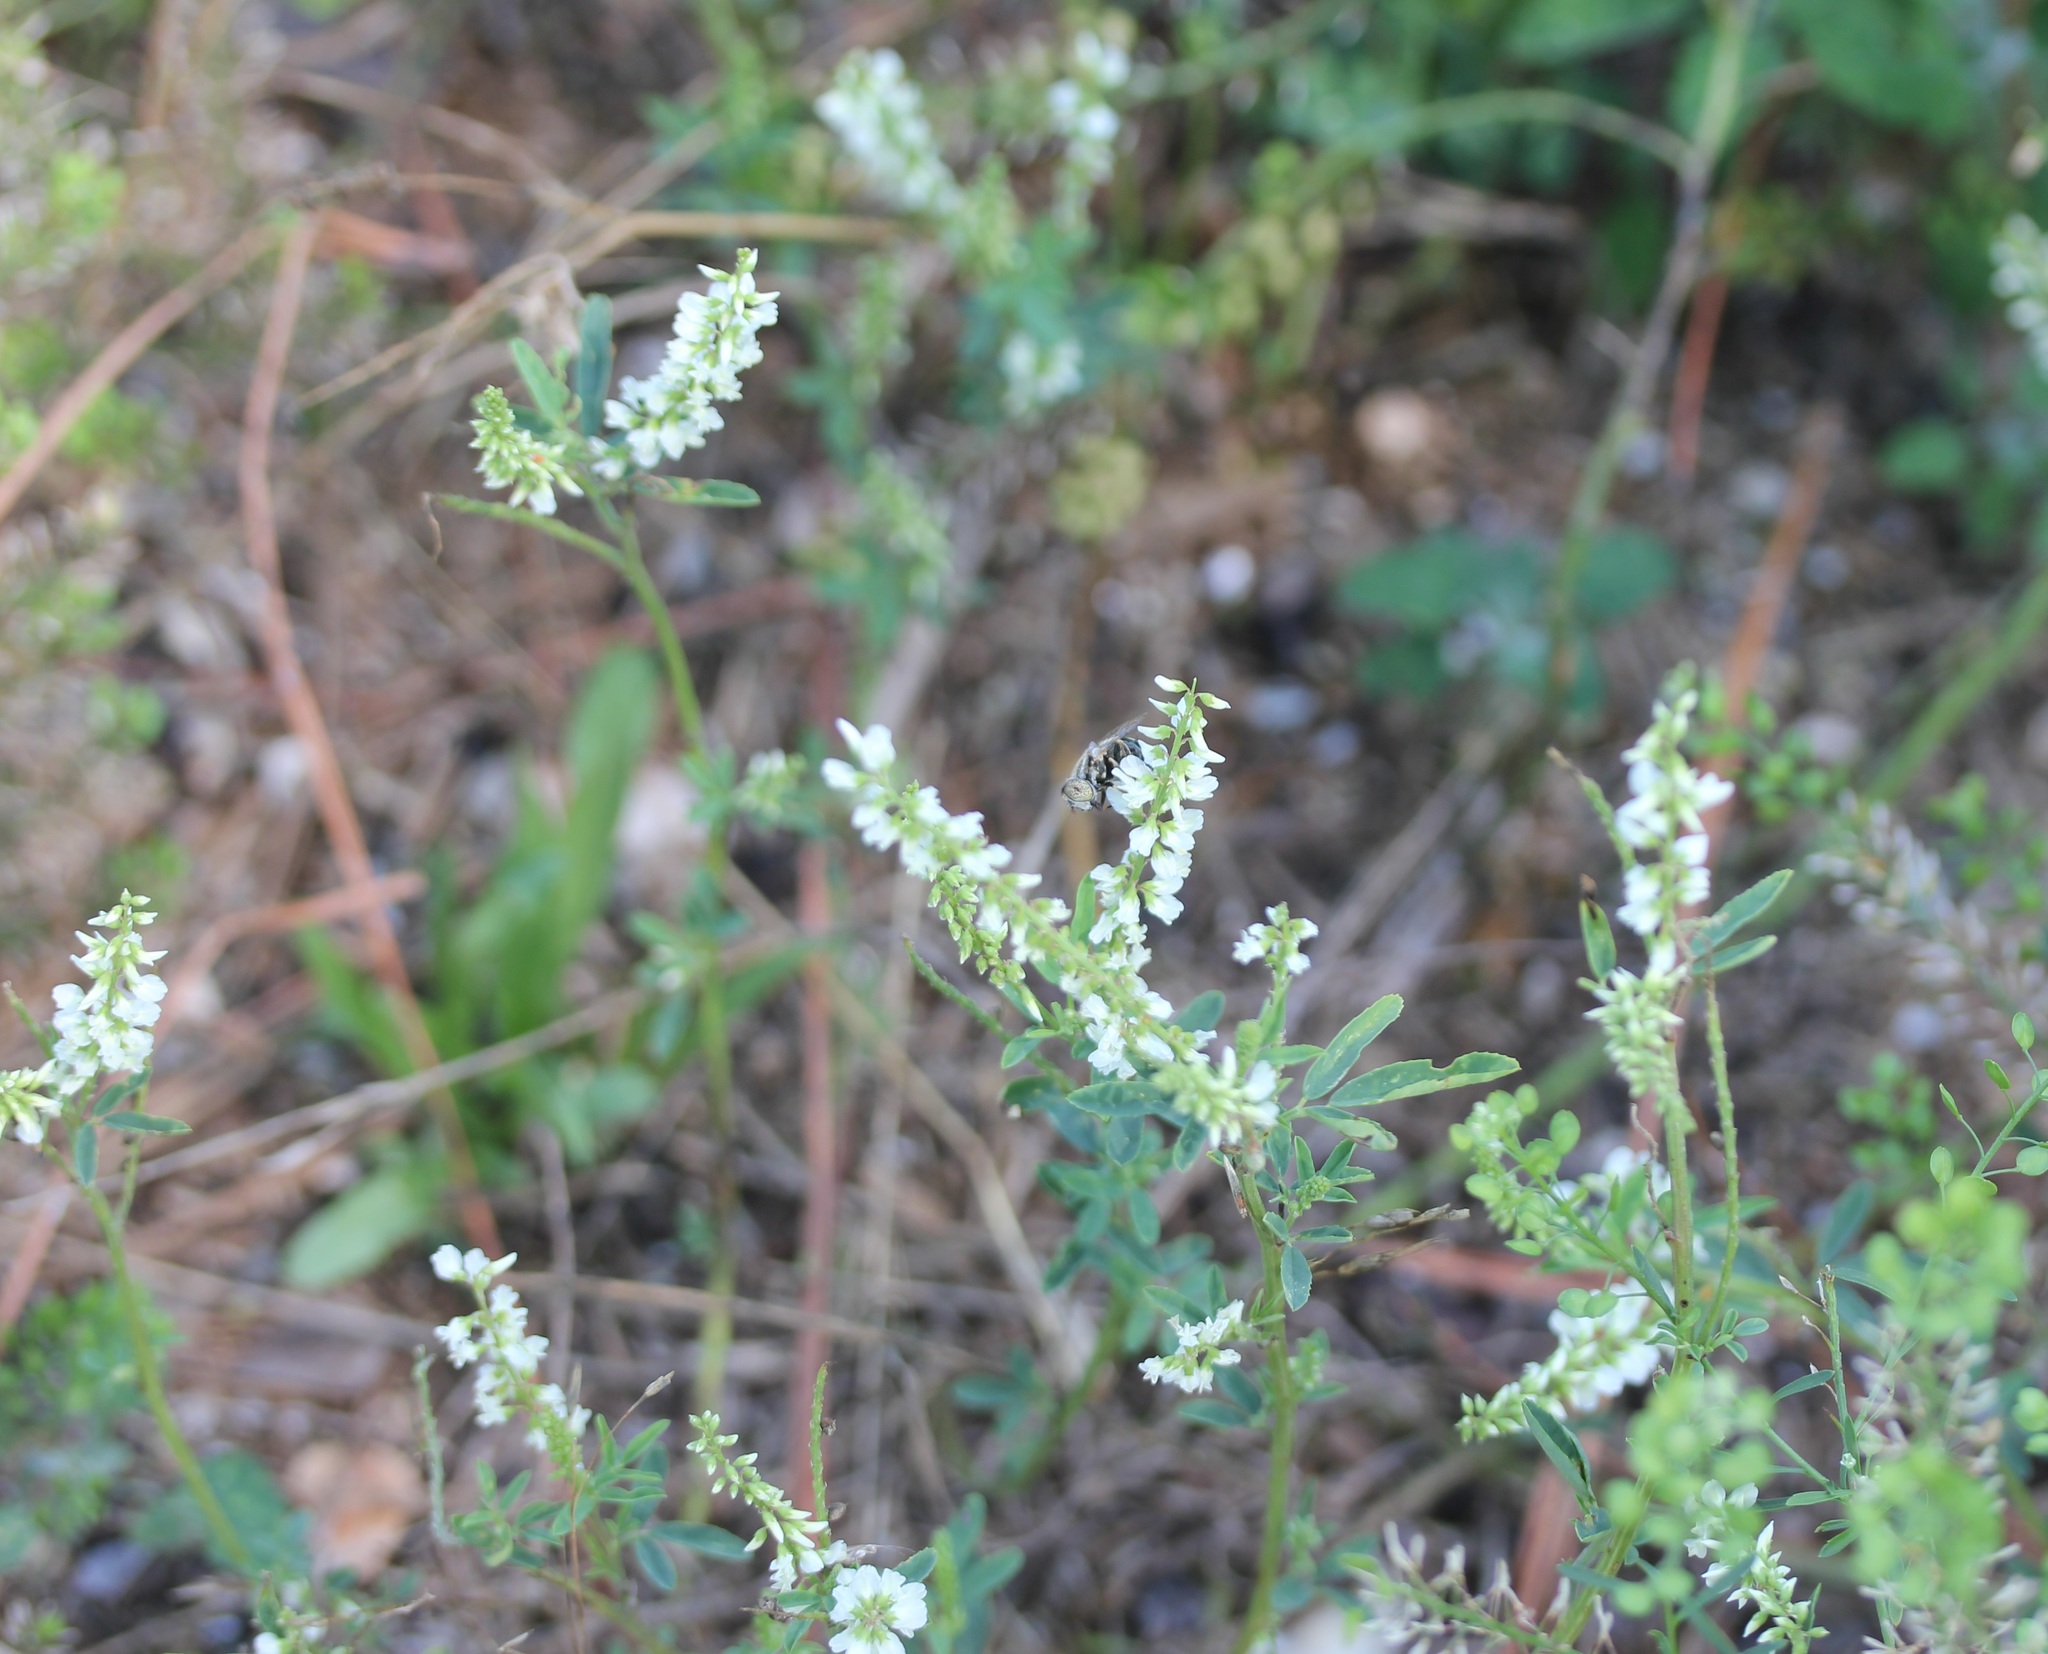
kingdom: Plantae
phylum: Tracheophyta
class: Magnoliopsida
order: Fabales
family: Fabaceae
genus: Melilotus
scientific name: Melilotus albus
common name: White melilot
